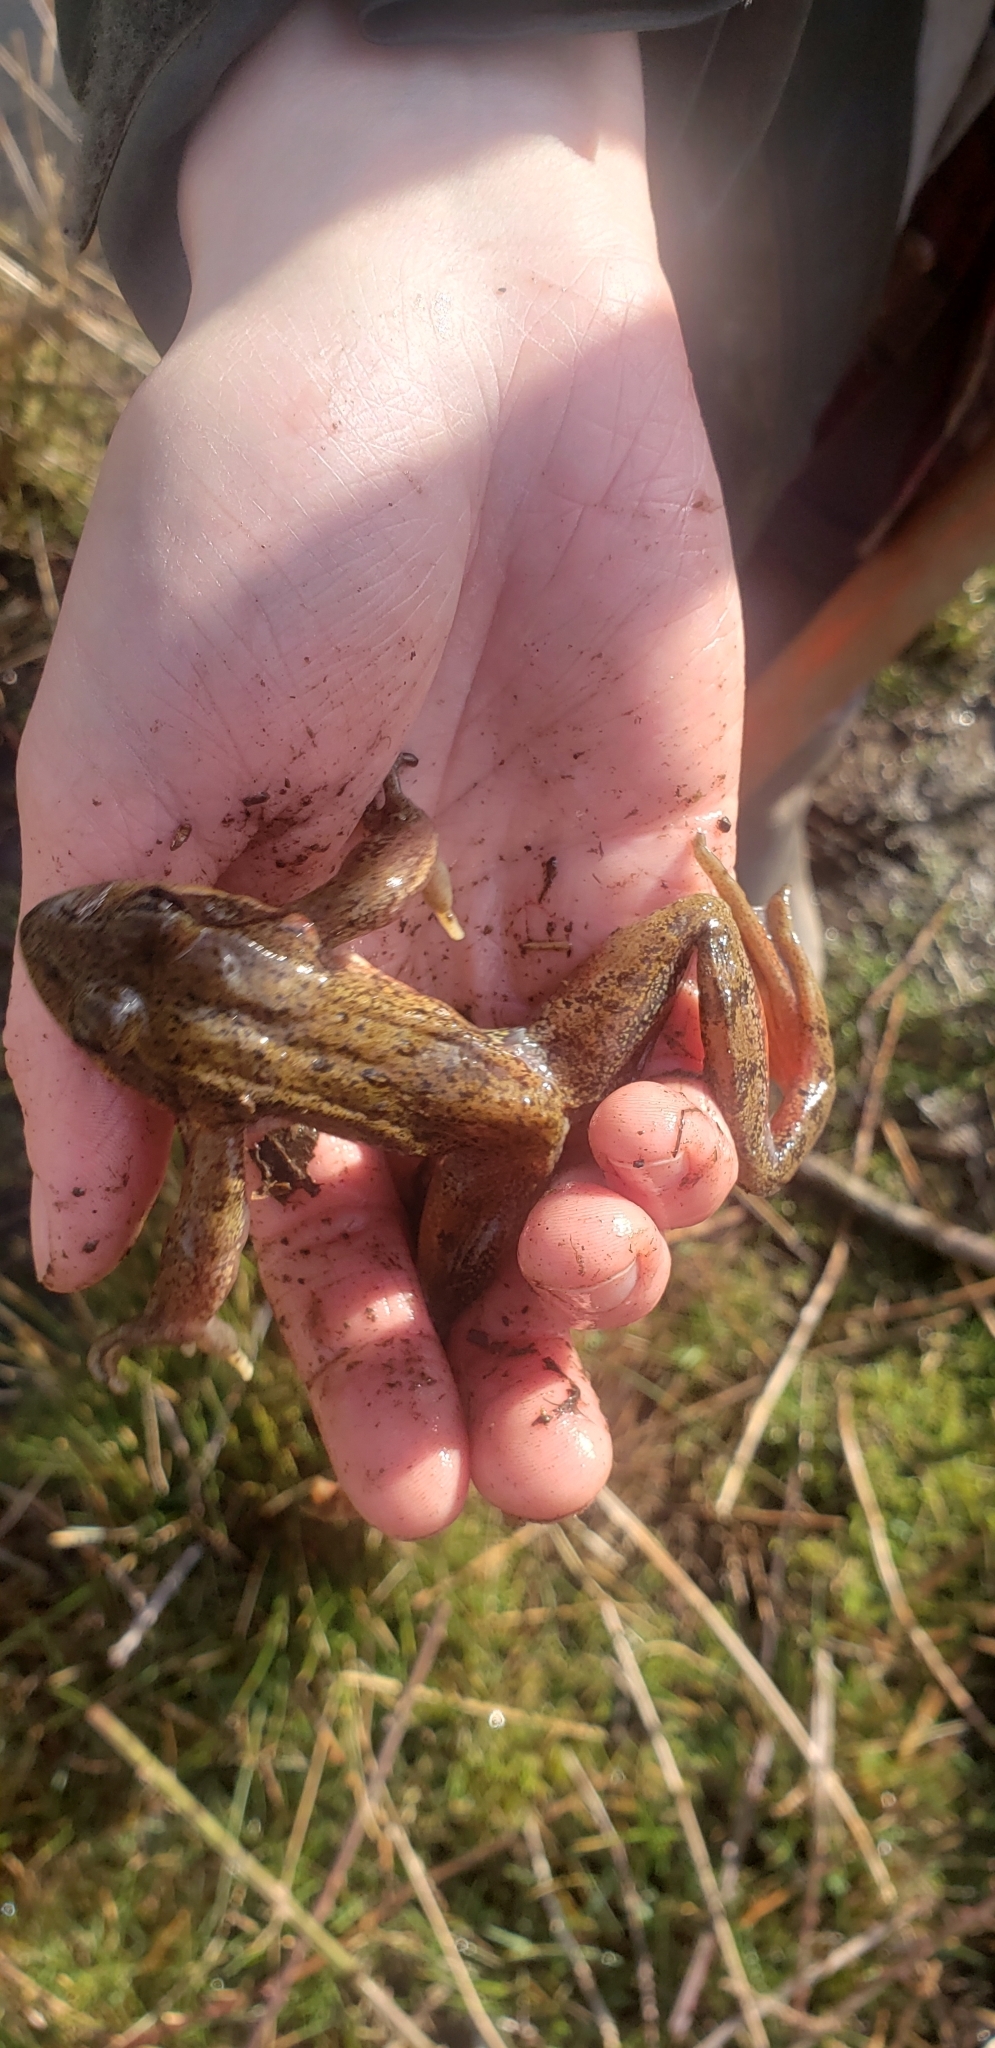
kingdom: Animalia
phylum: Chordata
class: Amphibia
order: Anura
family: Ranidae
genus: Rana
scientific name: Rana aurora
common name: Red-legged frog
